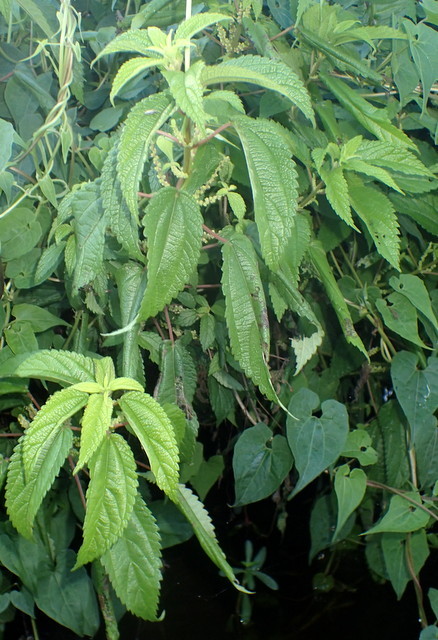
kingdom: Plantae
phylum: Tracheophyta
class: Magnoliopsida
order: Rosales
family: Urticaceae
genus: Boehmeria
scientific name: Boehmeria cylindrica
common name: Bog-hemp
